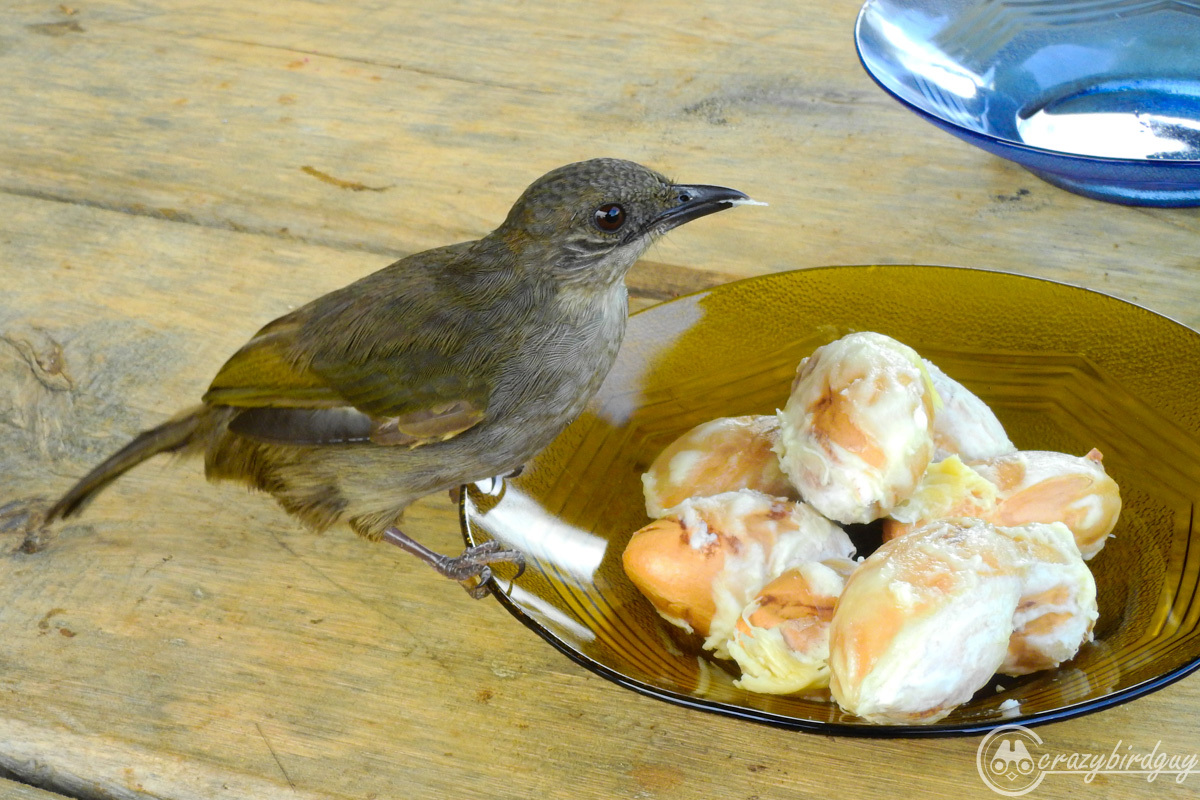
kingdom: Animalia
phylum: Chordata
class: Aves
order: Passeriformes
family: Pycnonotidae
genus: Pycnonotus
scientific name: Pycnonotus plumosus
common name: Olive-winged bulbul
